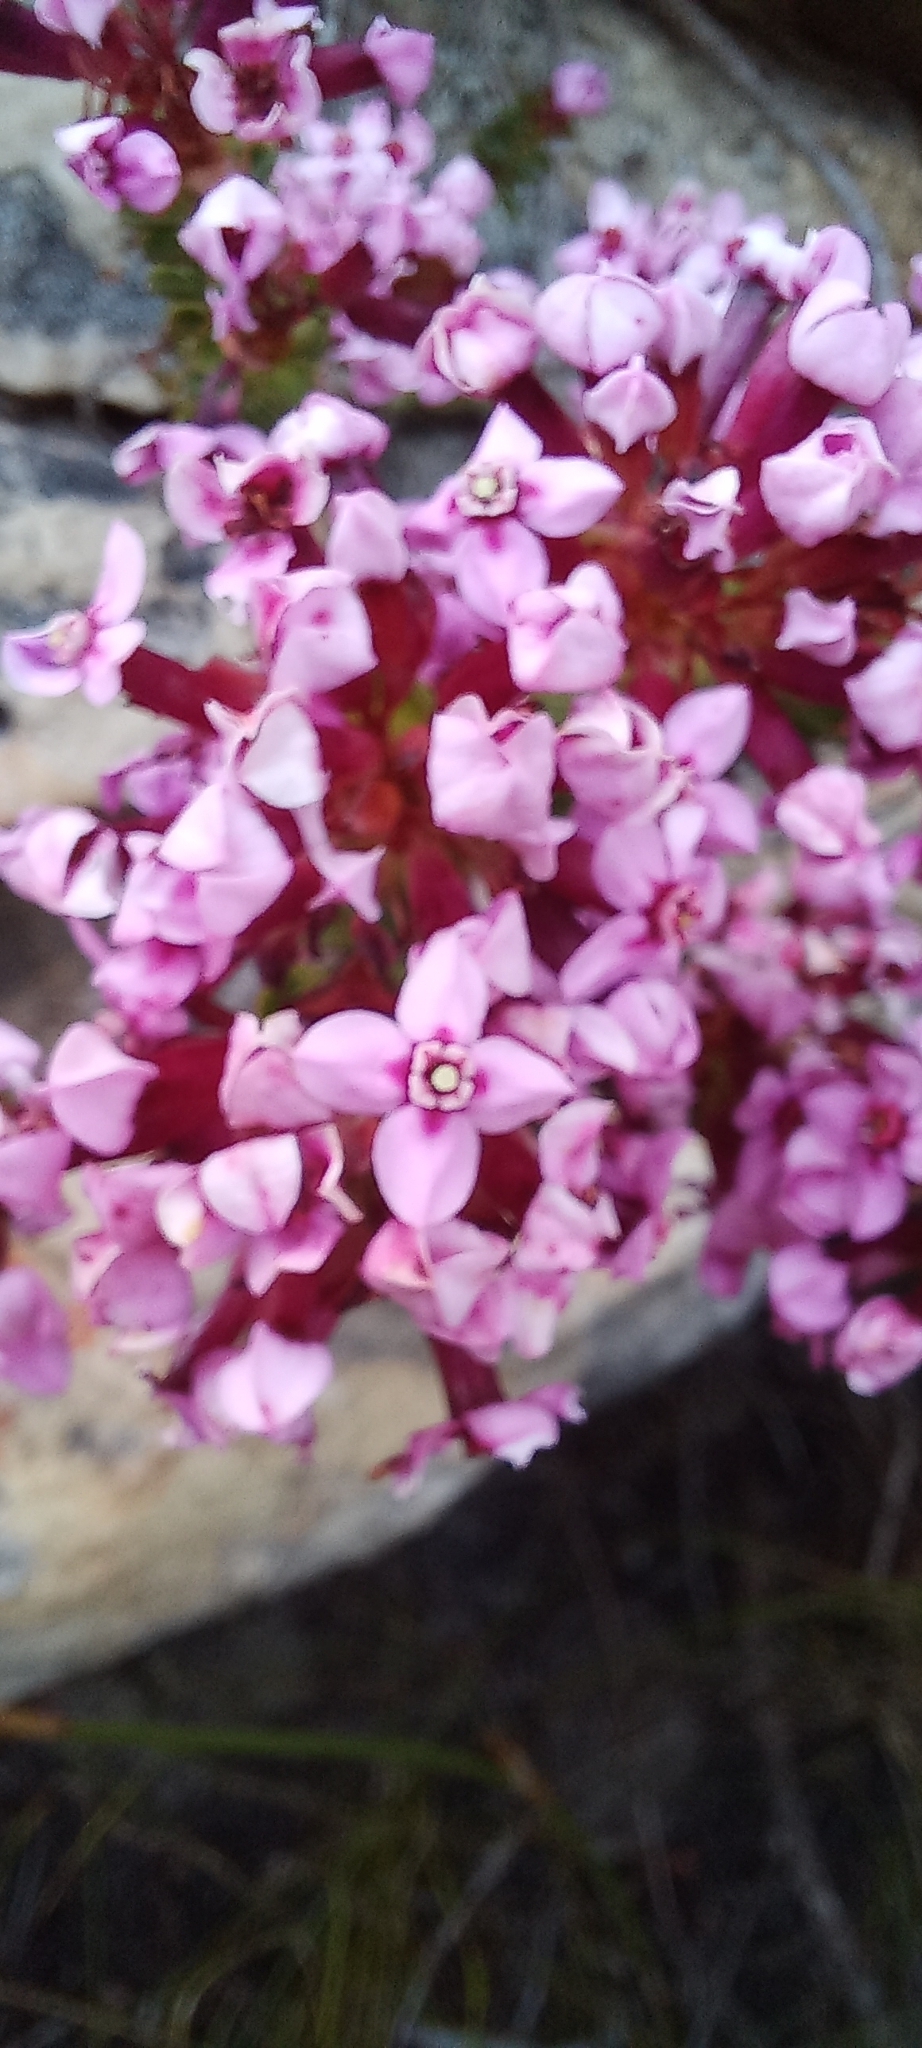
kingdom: Plantae
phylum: Tracheophyta
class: Magnoliopsida
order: Myrtales
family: Penaeaceae
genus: Sonderothamnus
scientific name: Sonderothamnus petraeus
